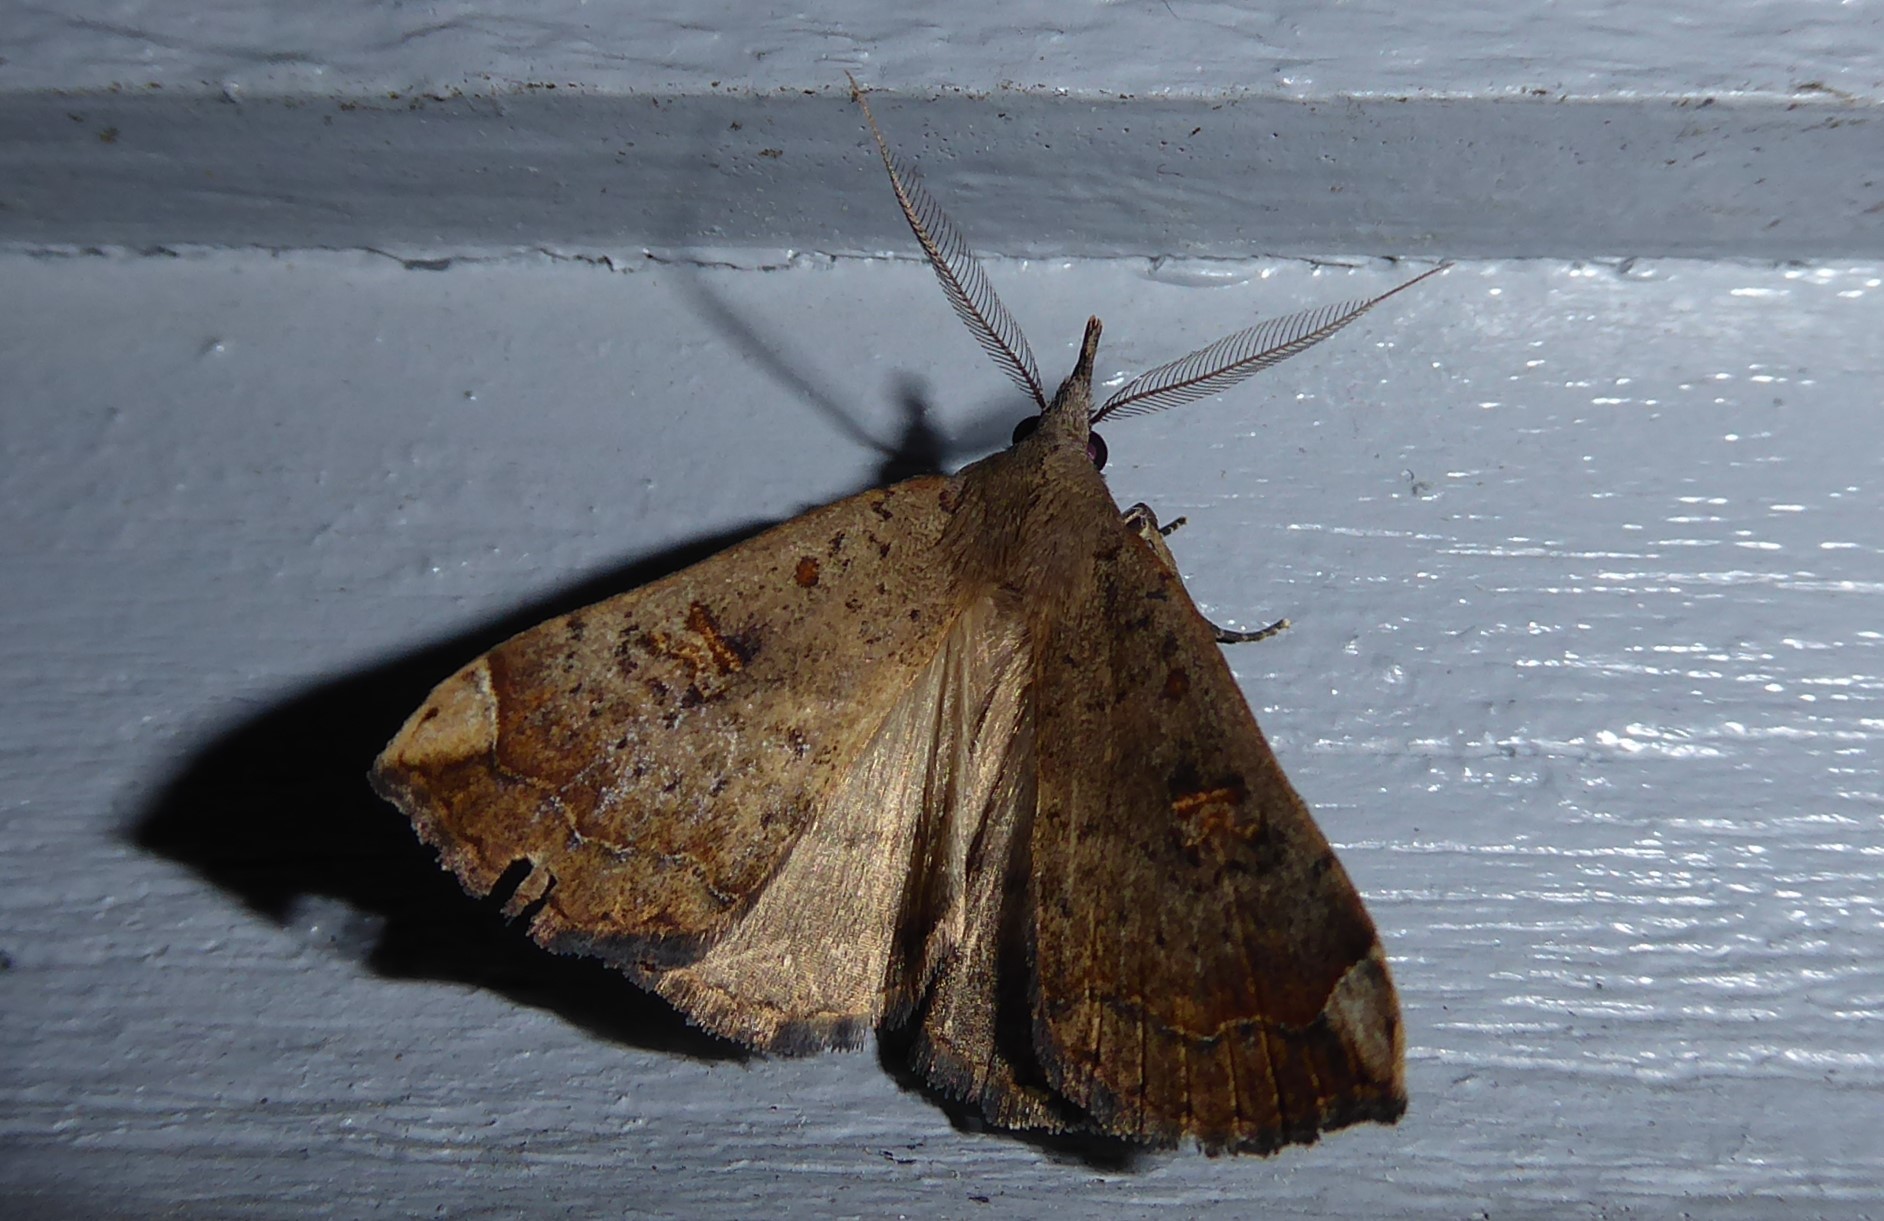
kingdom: Animalia
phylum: Arthropoda
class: Insecta
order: Lepidoptera
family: Erebidae
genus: Rhapsa
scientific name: Rhapsa scotosialis
